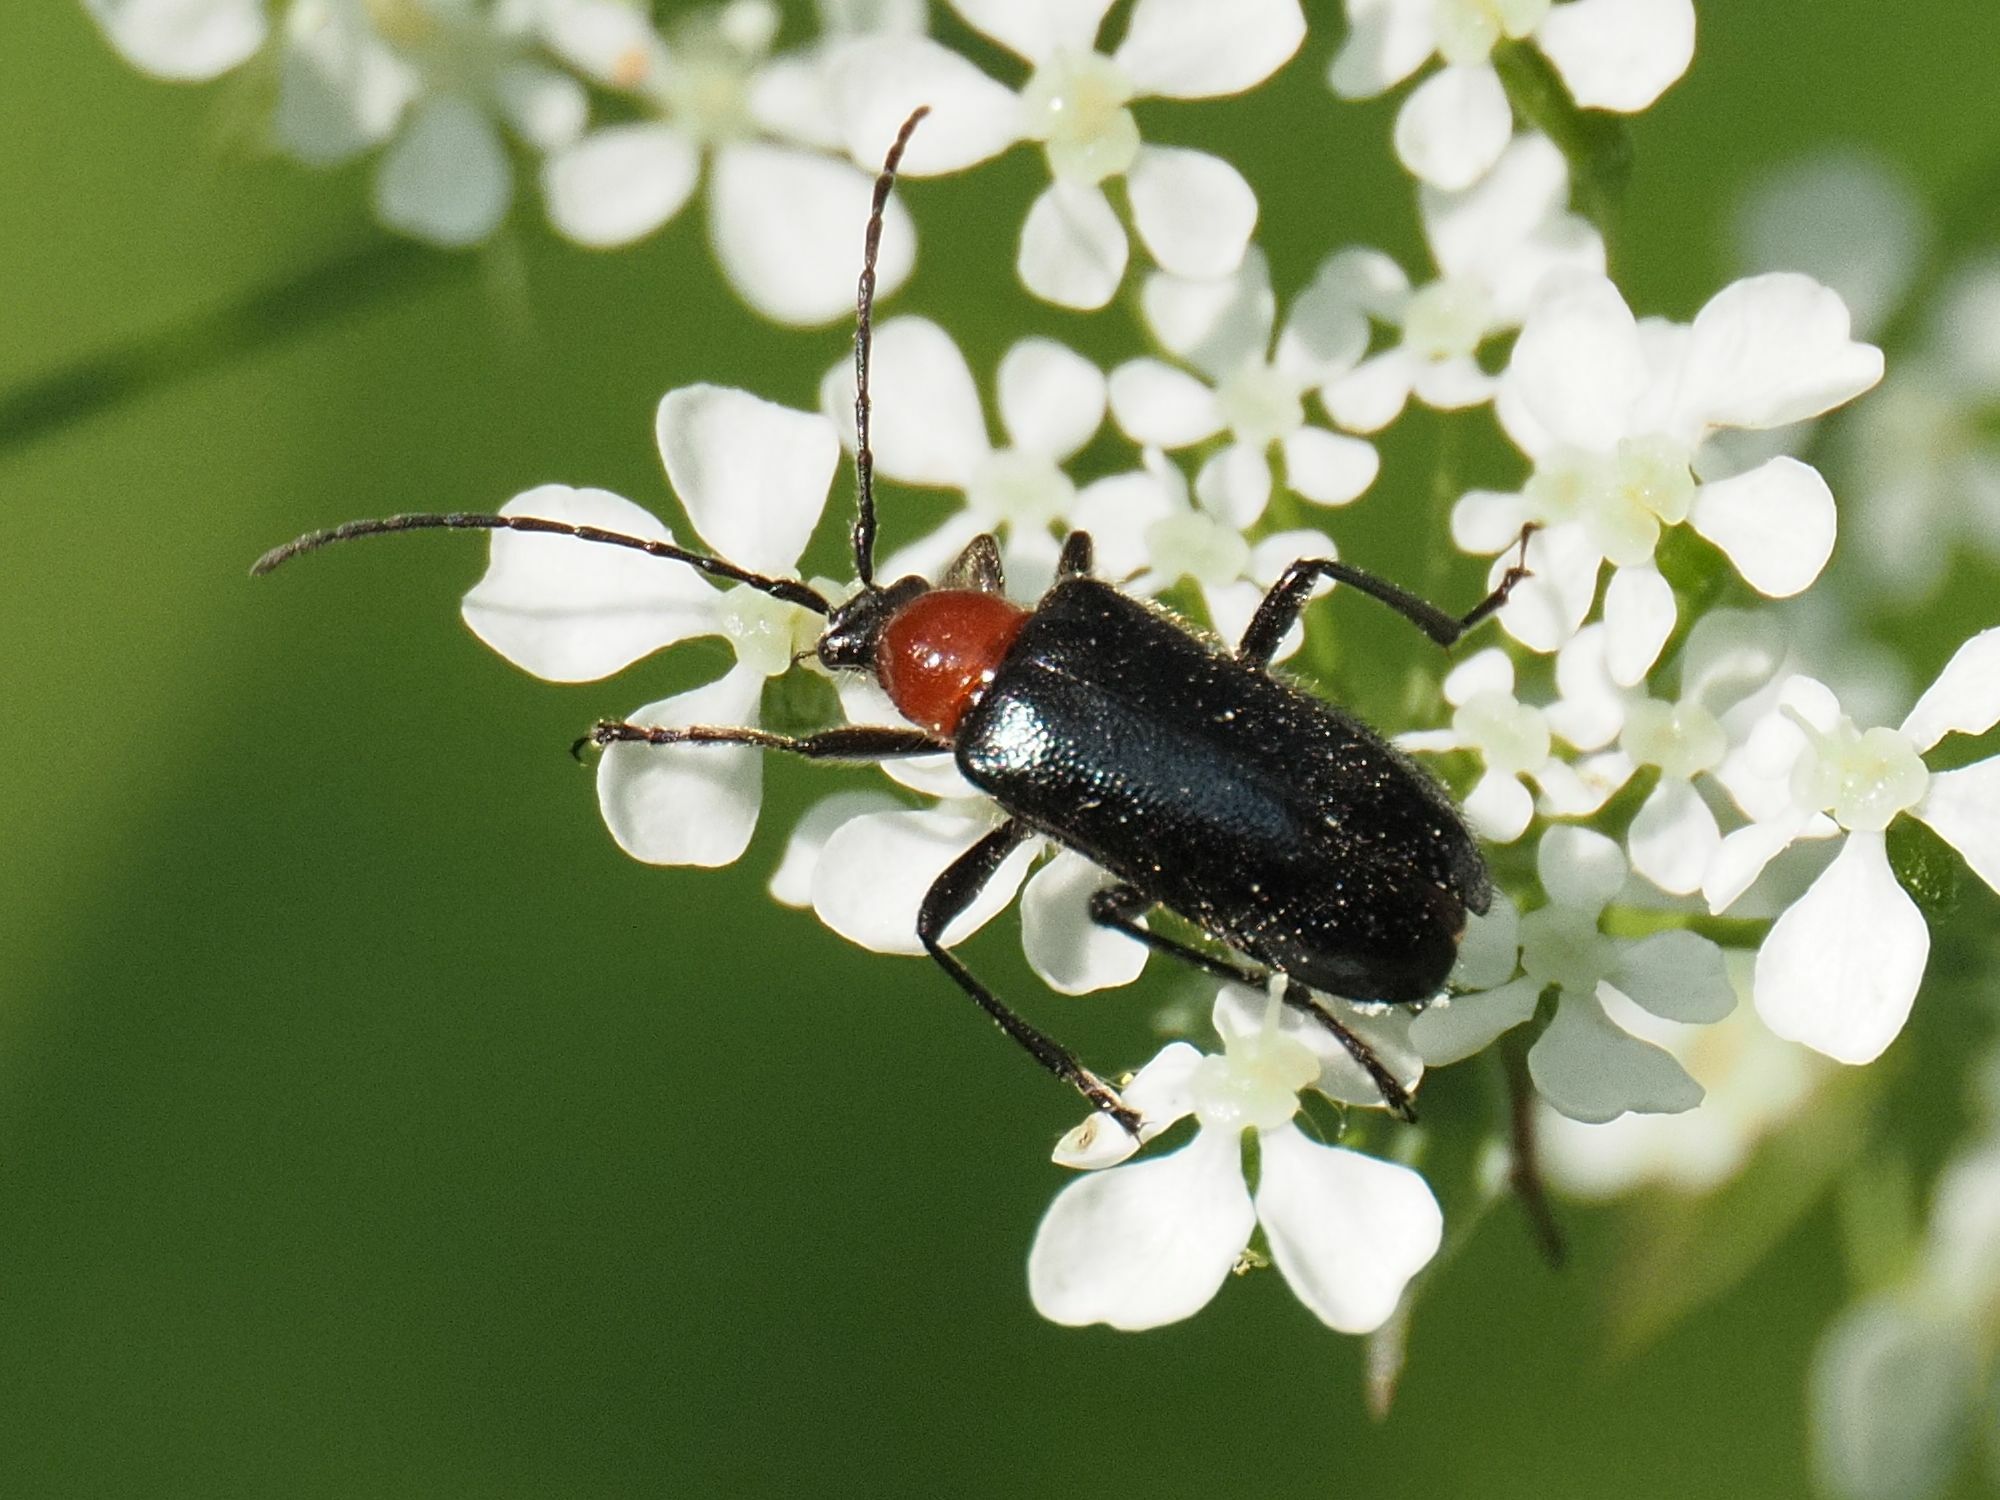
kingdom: Animalia
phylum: Arthropoda
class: Insecta
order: Coleoptera
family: Cerambycidae
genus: Dinoptera
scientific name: Dinoptera collaris
